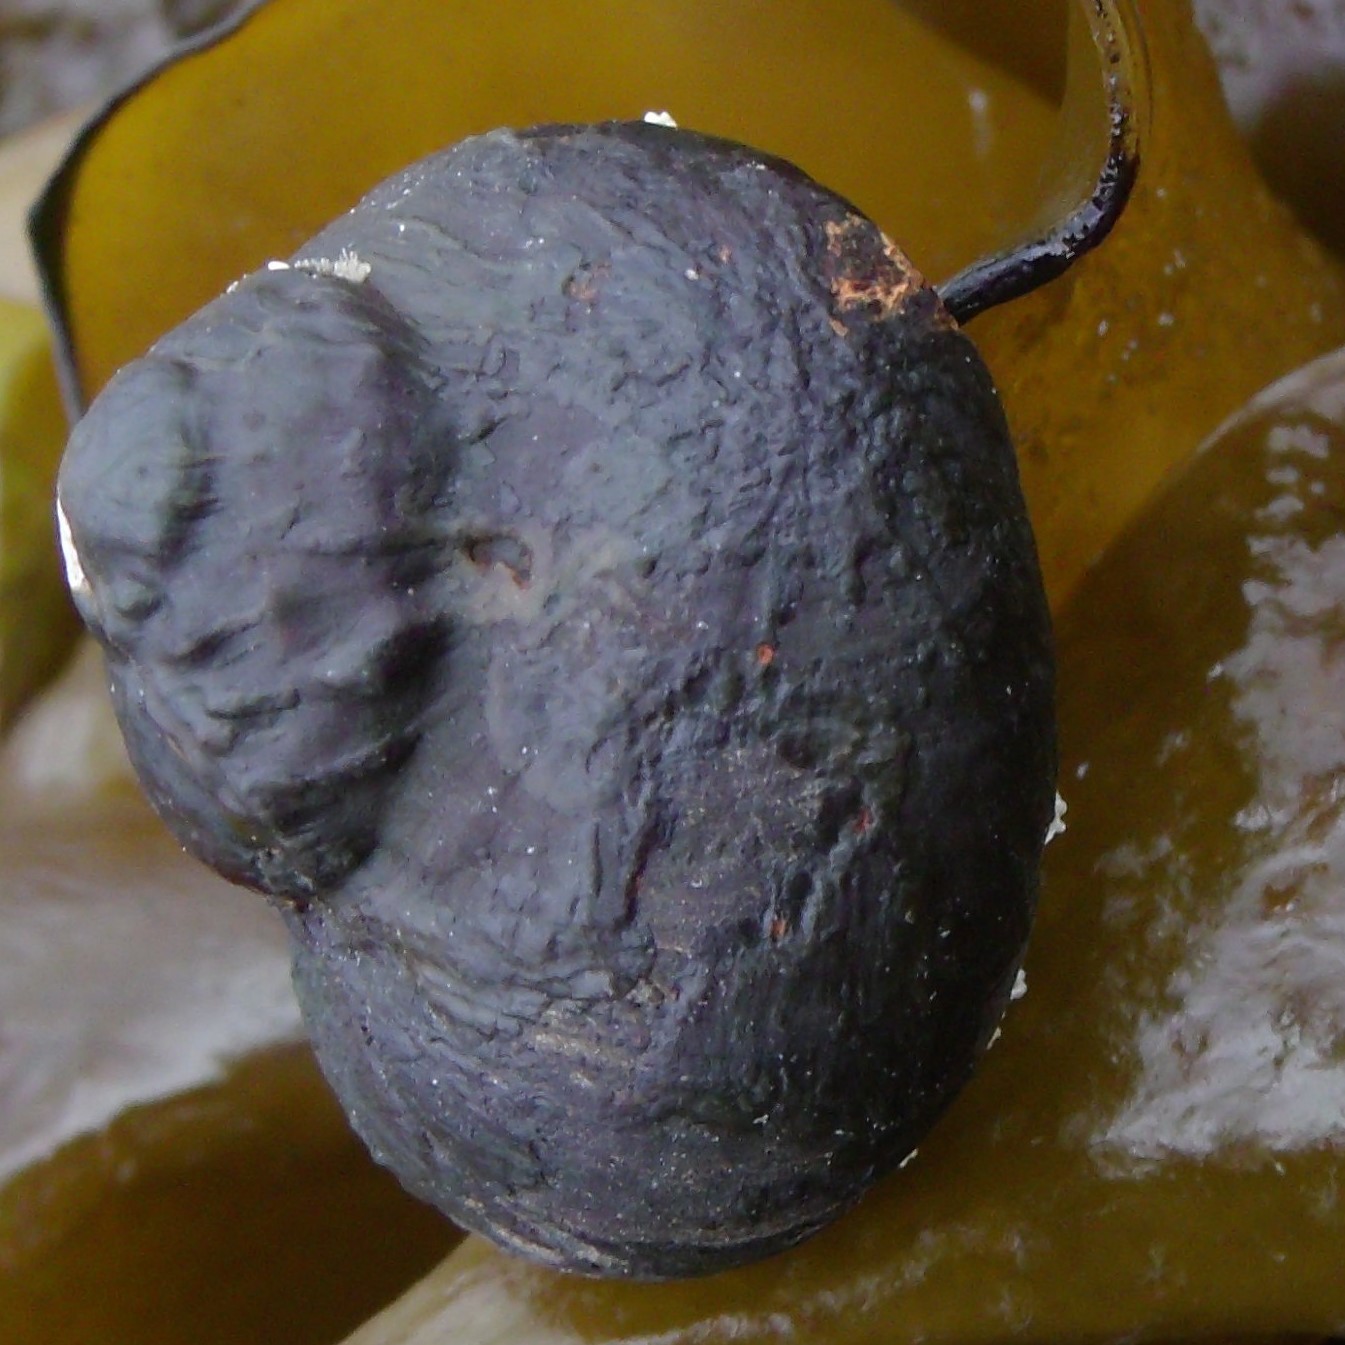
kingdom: Animalia
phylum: Mollusca
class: Gastropoda
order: Trochida
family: Turbinidae
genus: Lunella
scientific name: Lunella smaragda
